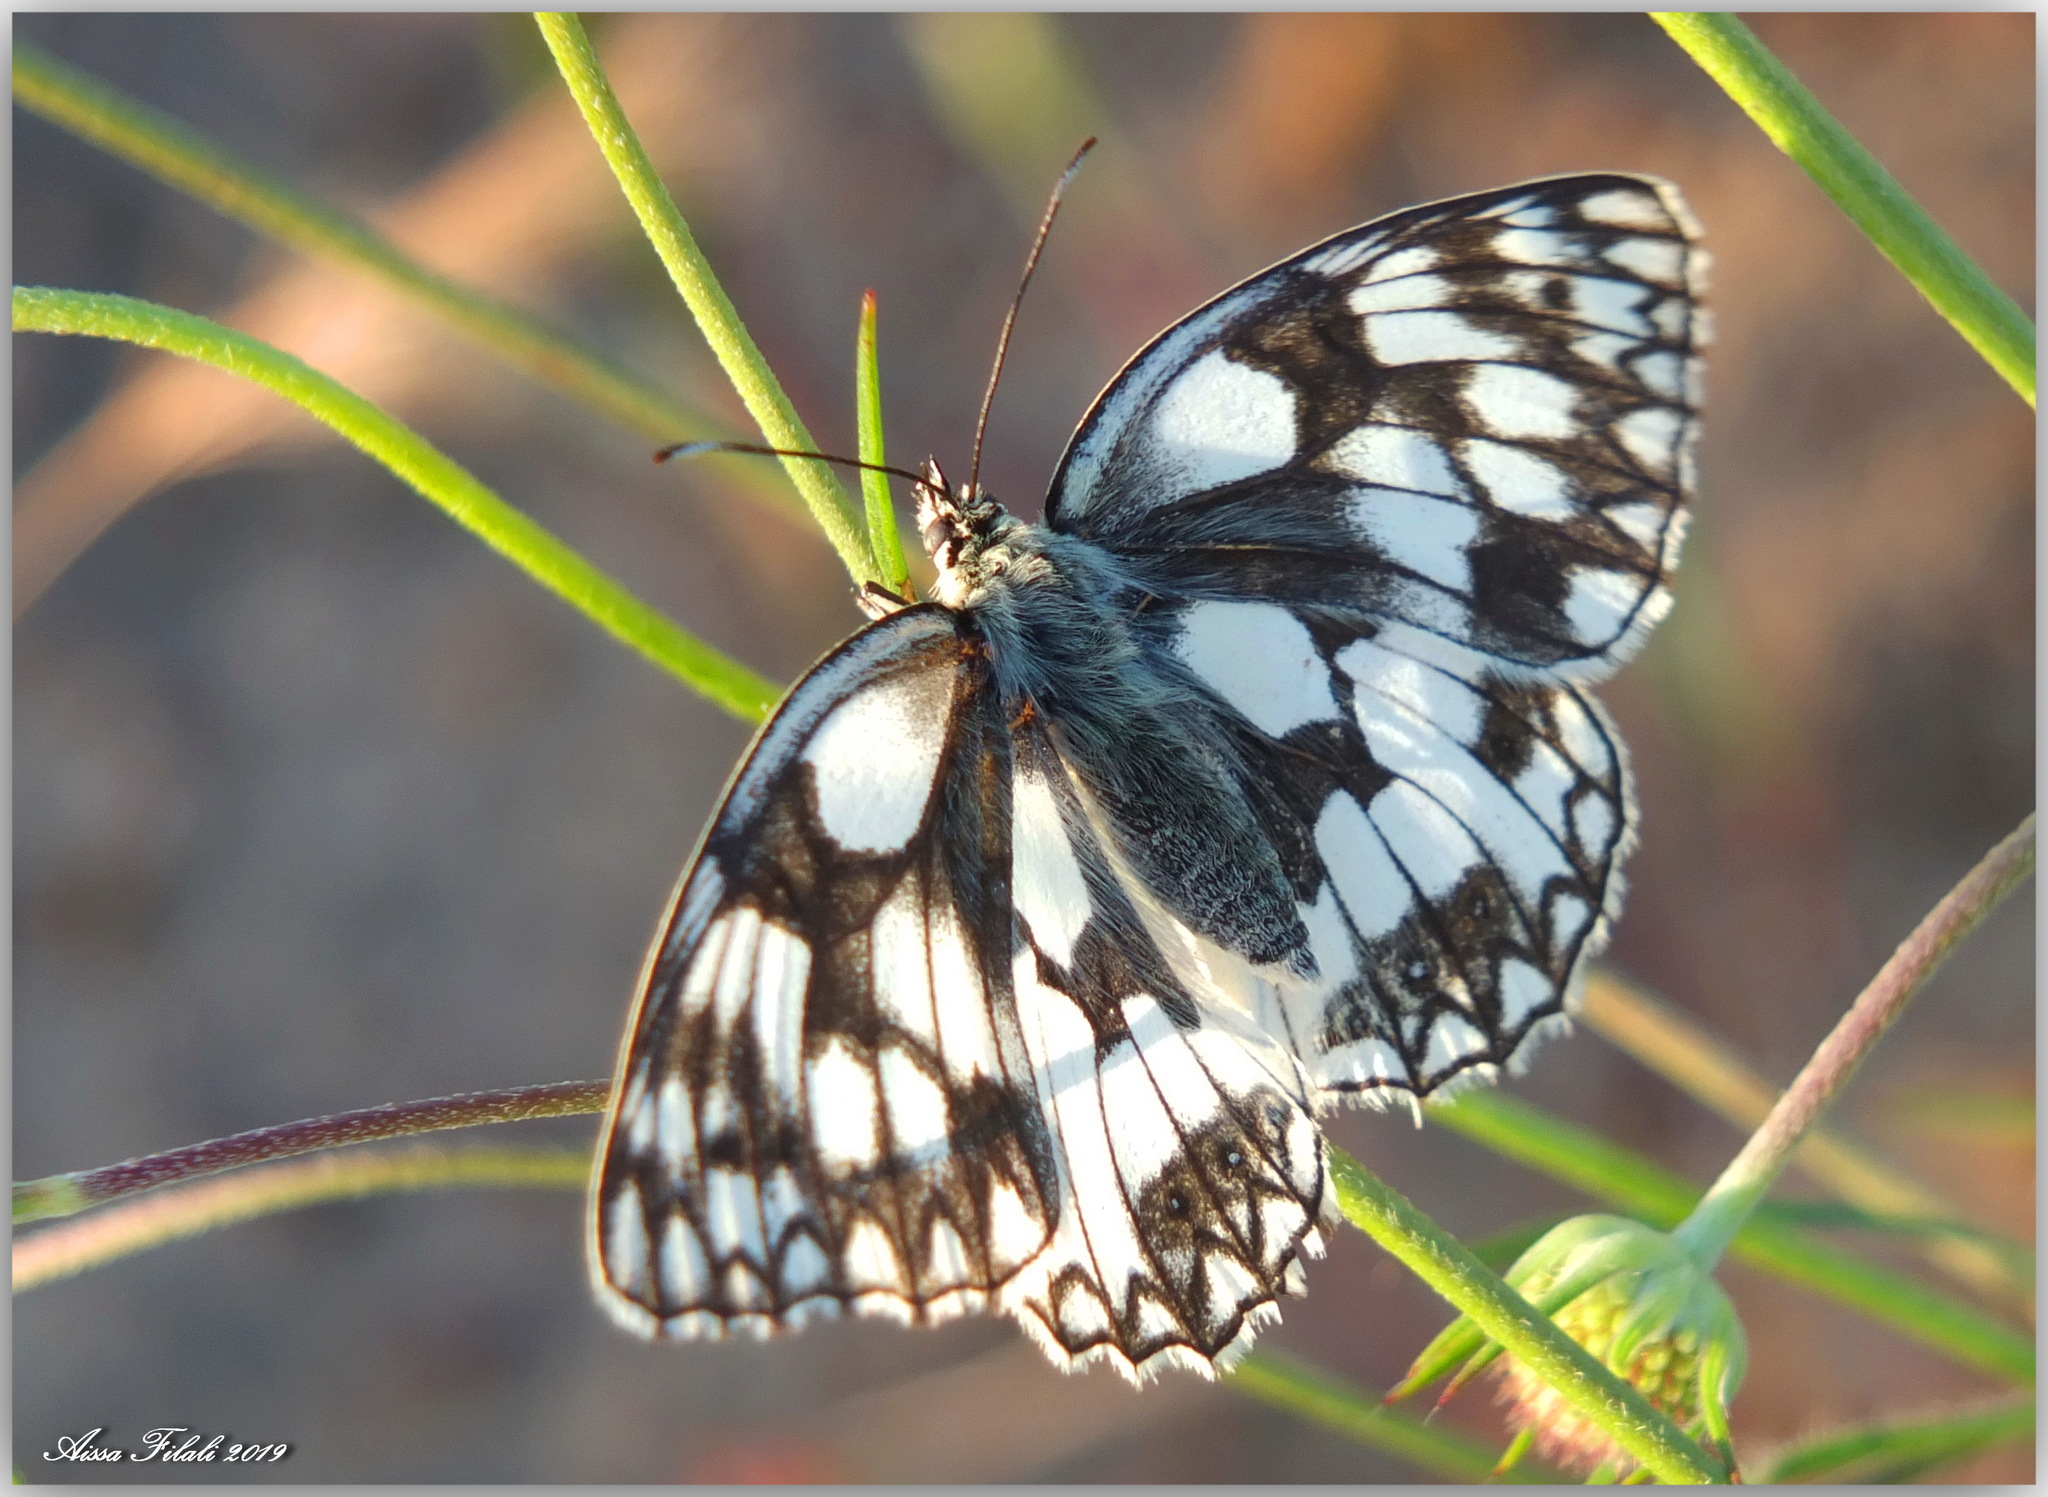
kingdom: Animalia
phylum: Arthropoda
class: Insecta
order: Lepidoptera
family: Nymphalidae
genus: Melanargia
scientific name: Melanargia lucasi
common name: Moroccan marbled white
